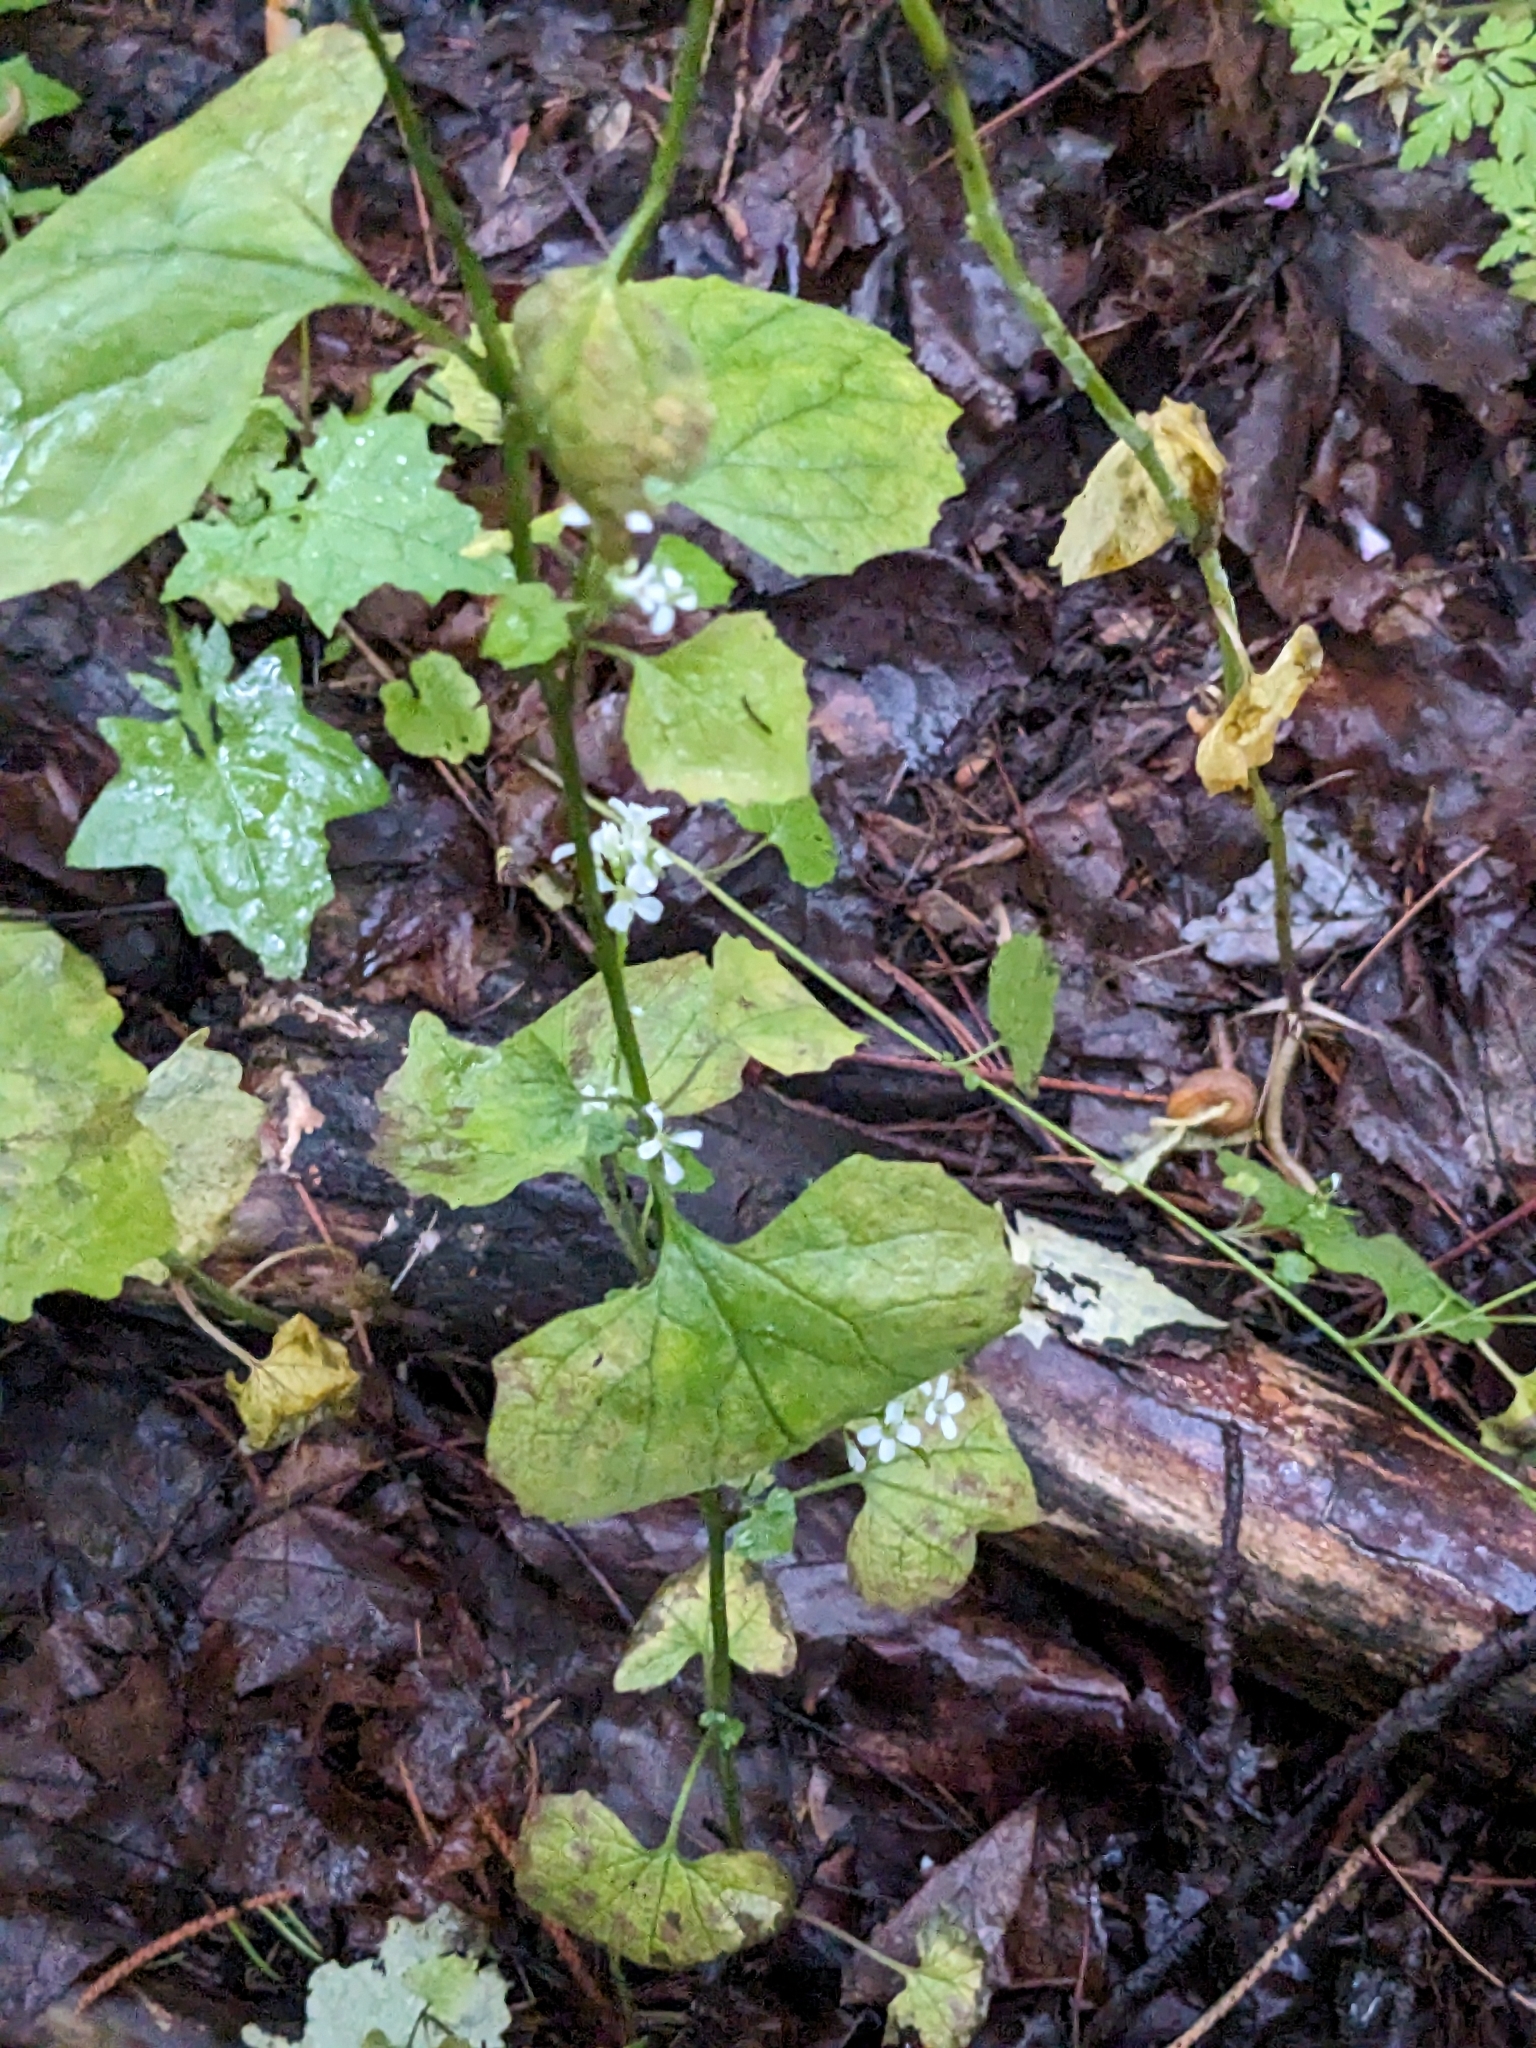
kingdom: Plantae
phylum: Tracheophyta
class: Magnoliopsida
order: Brassicales
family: Brassicaceae
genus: Alliaria
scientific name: Alliaria petiolata
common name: Garlic mustard
